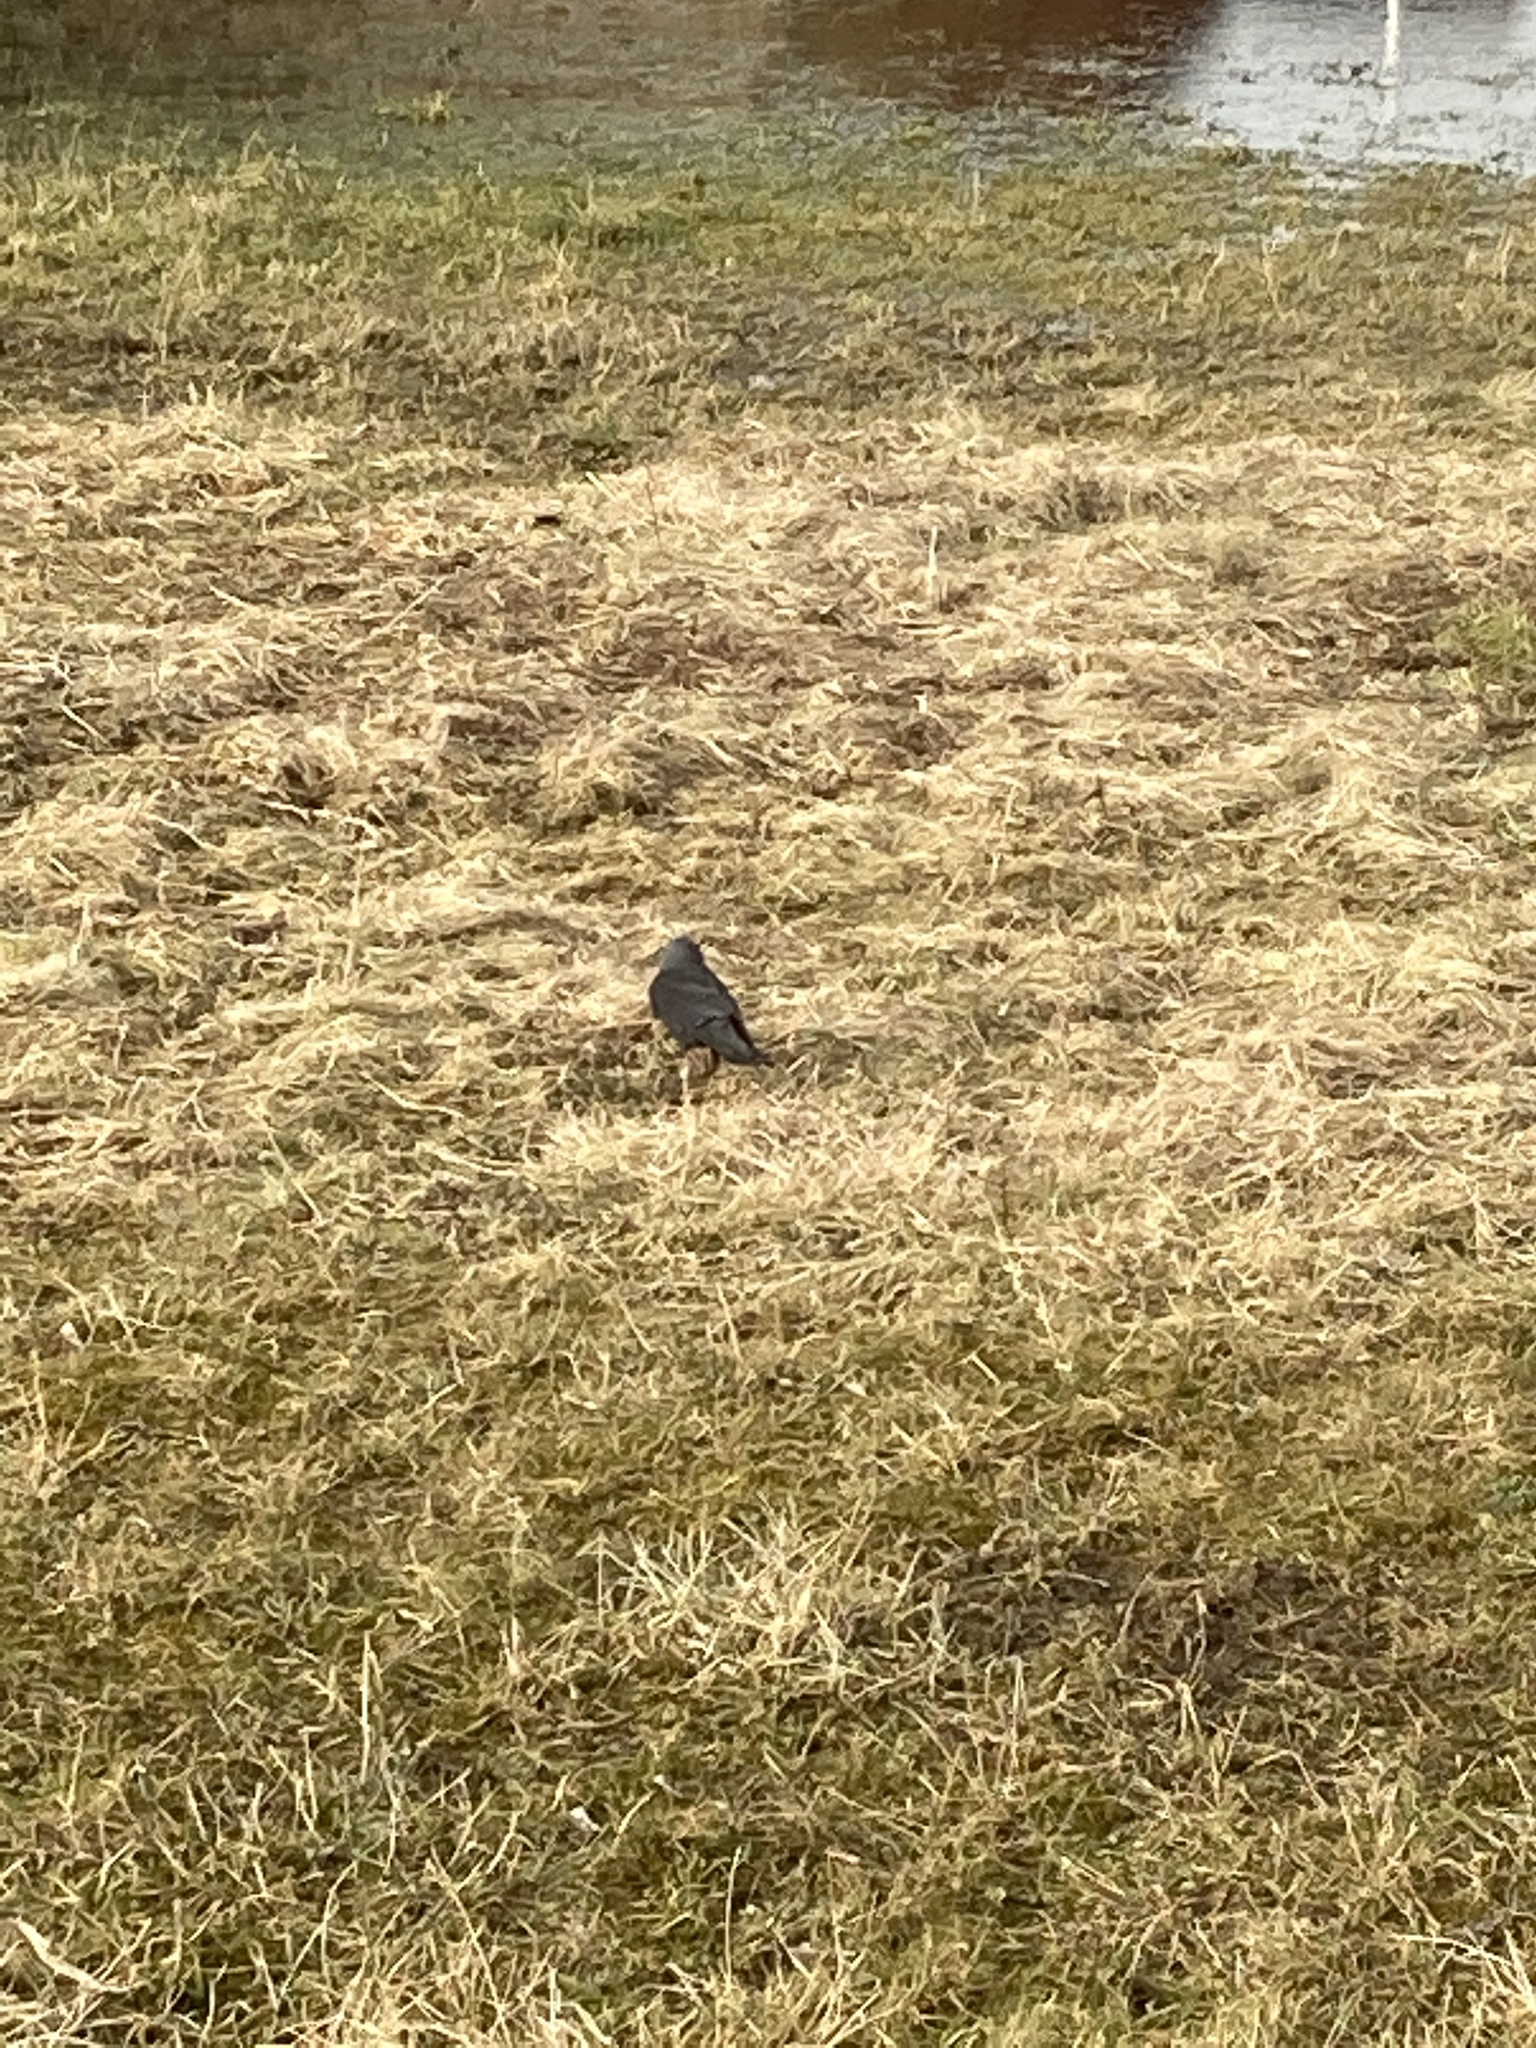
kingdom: Animalia
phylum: Chordata
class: Aves
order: Passeriformes
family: Corvidae
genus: Coloeus
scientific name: Coloeus monedula
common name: Western jackdaw
